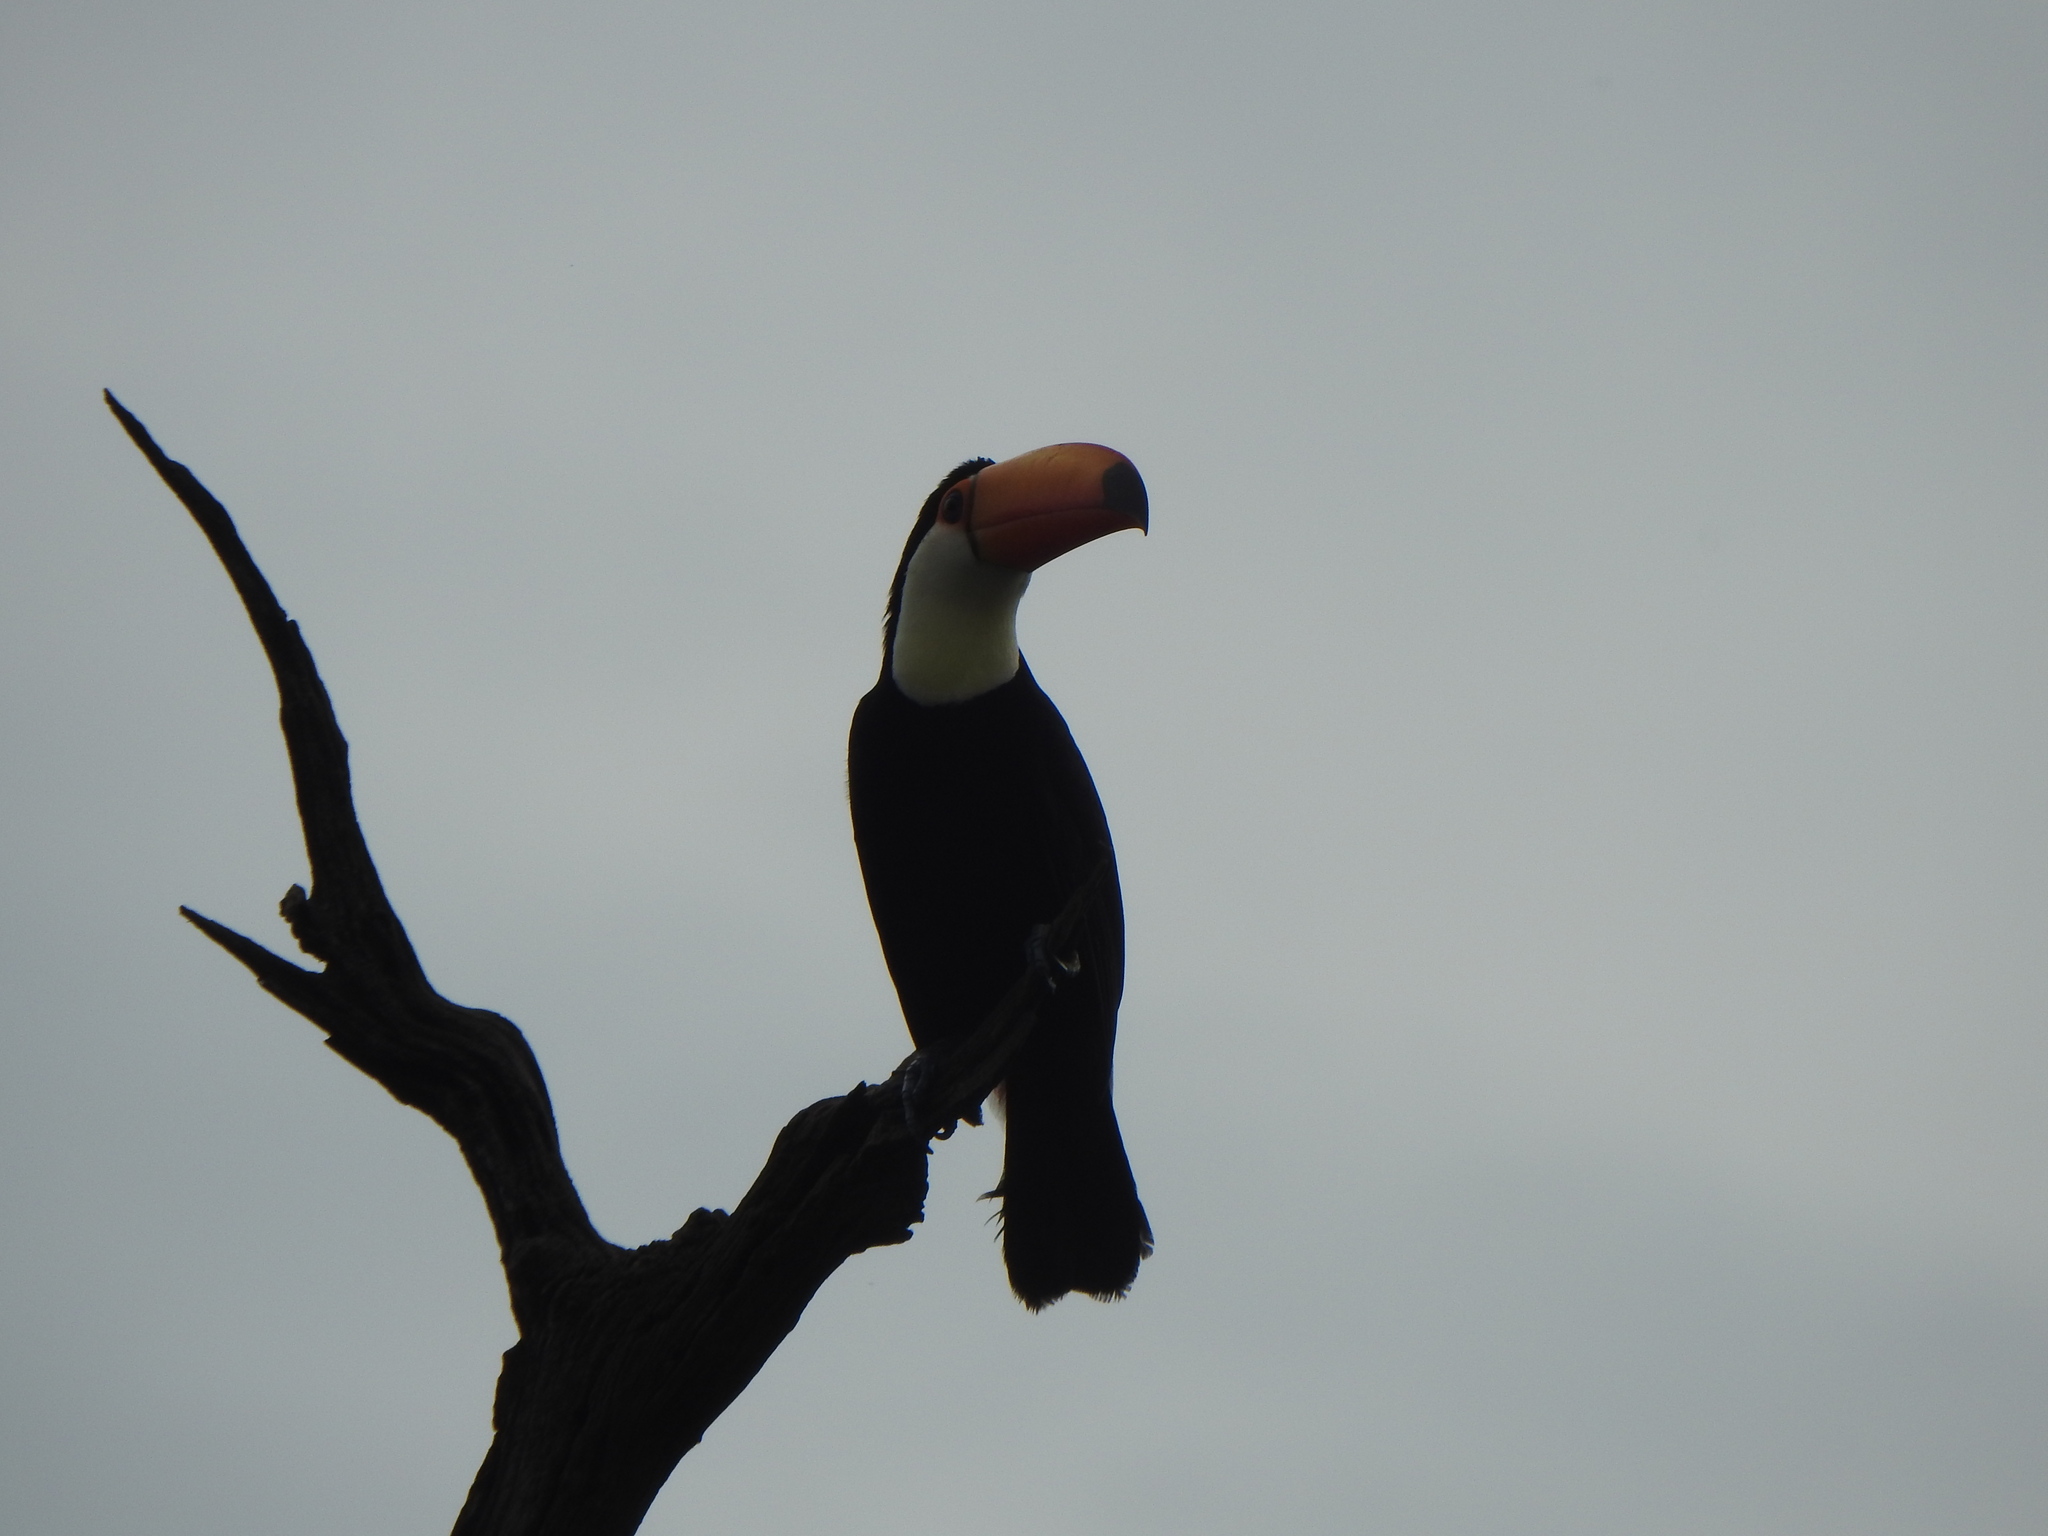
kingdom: Animalia
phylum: Chordata
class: Aves
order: Piciformes
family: Ramphastidae
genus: Ramphastos
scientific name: Ramphastos toco
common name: Toco toucan
